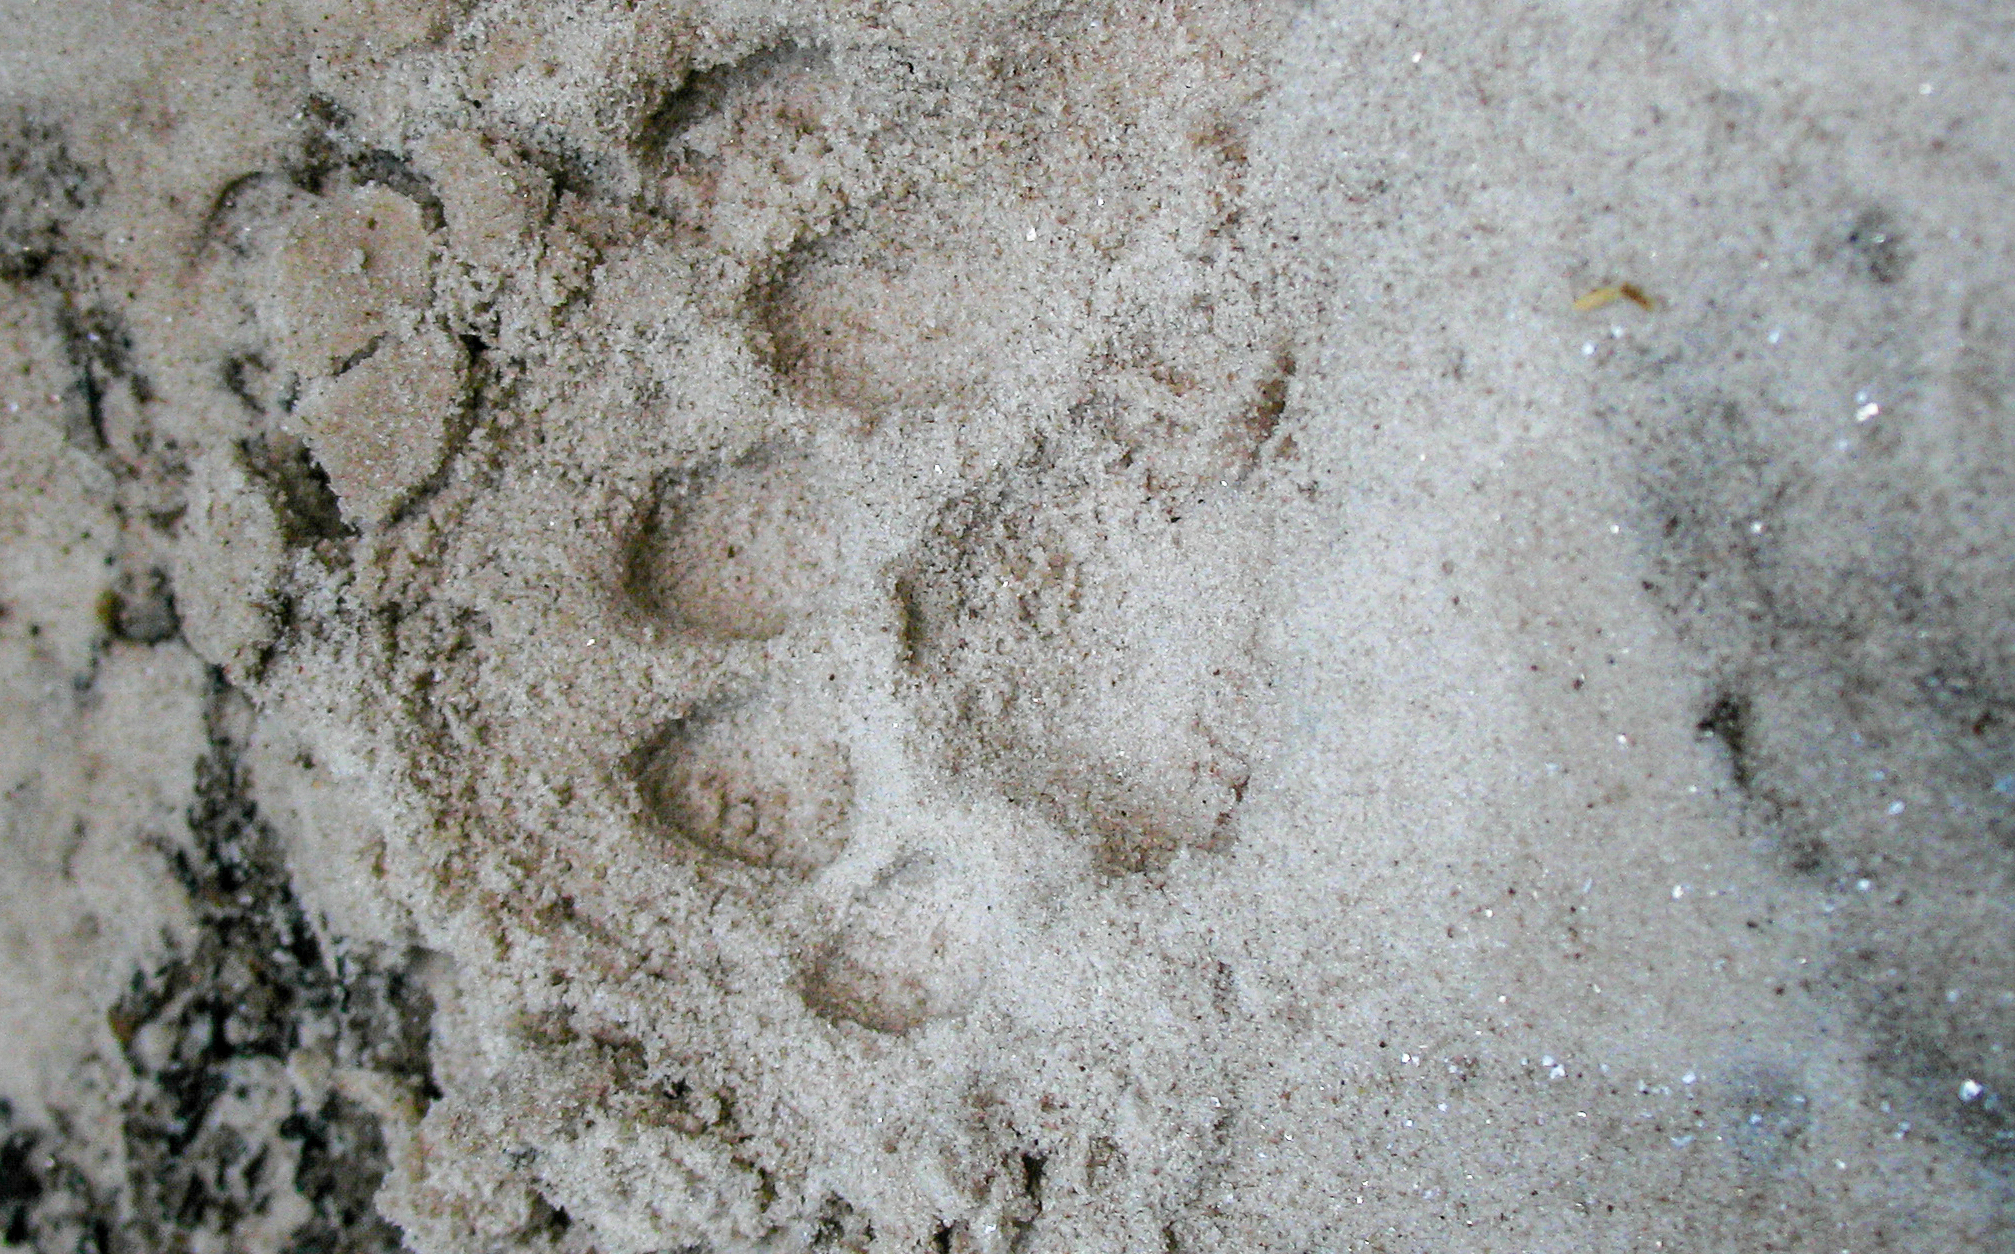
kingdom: Animalia
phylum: Chordata
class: Mammalia
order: Carnivora
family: Felidae
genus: Panthera
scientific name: Panthera onca
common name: Jaguar
